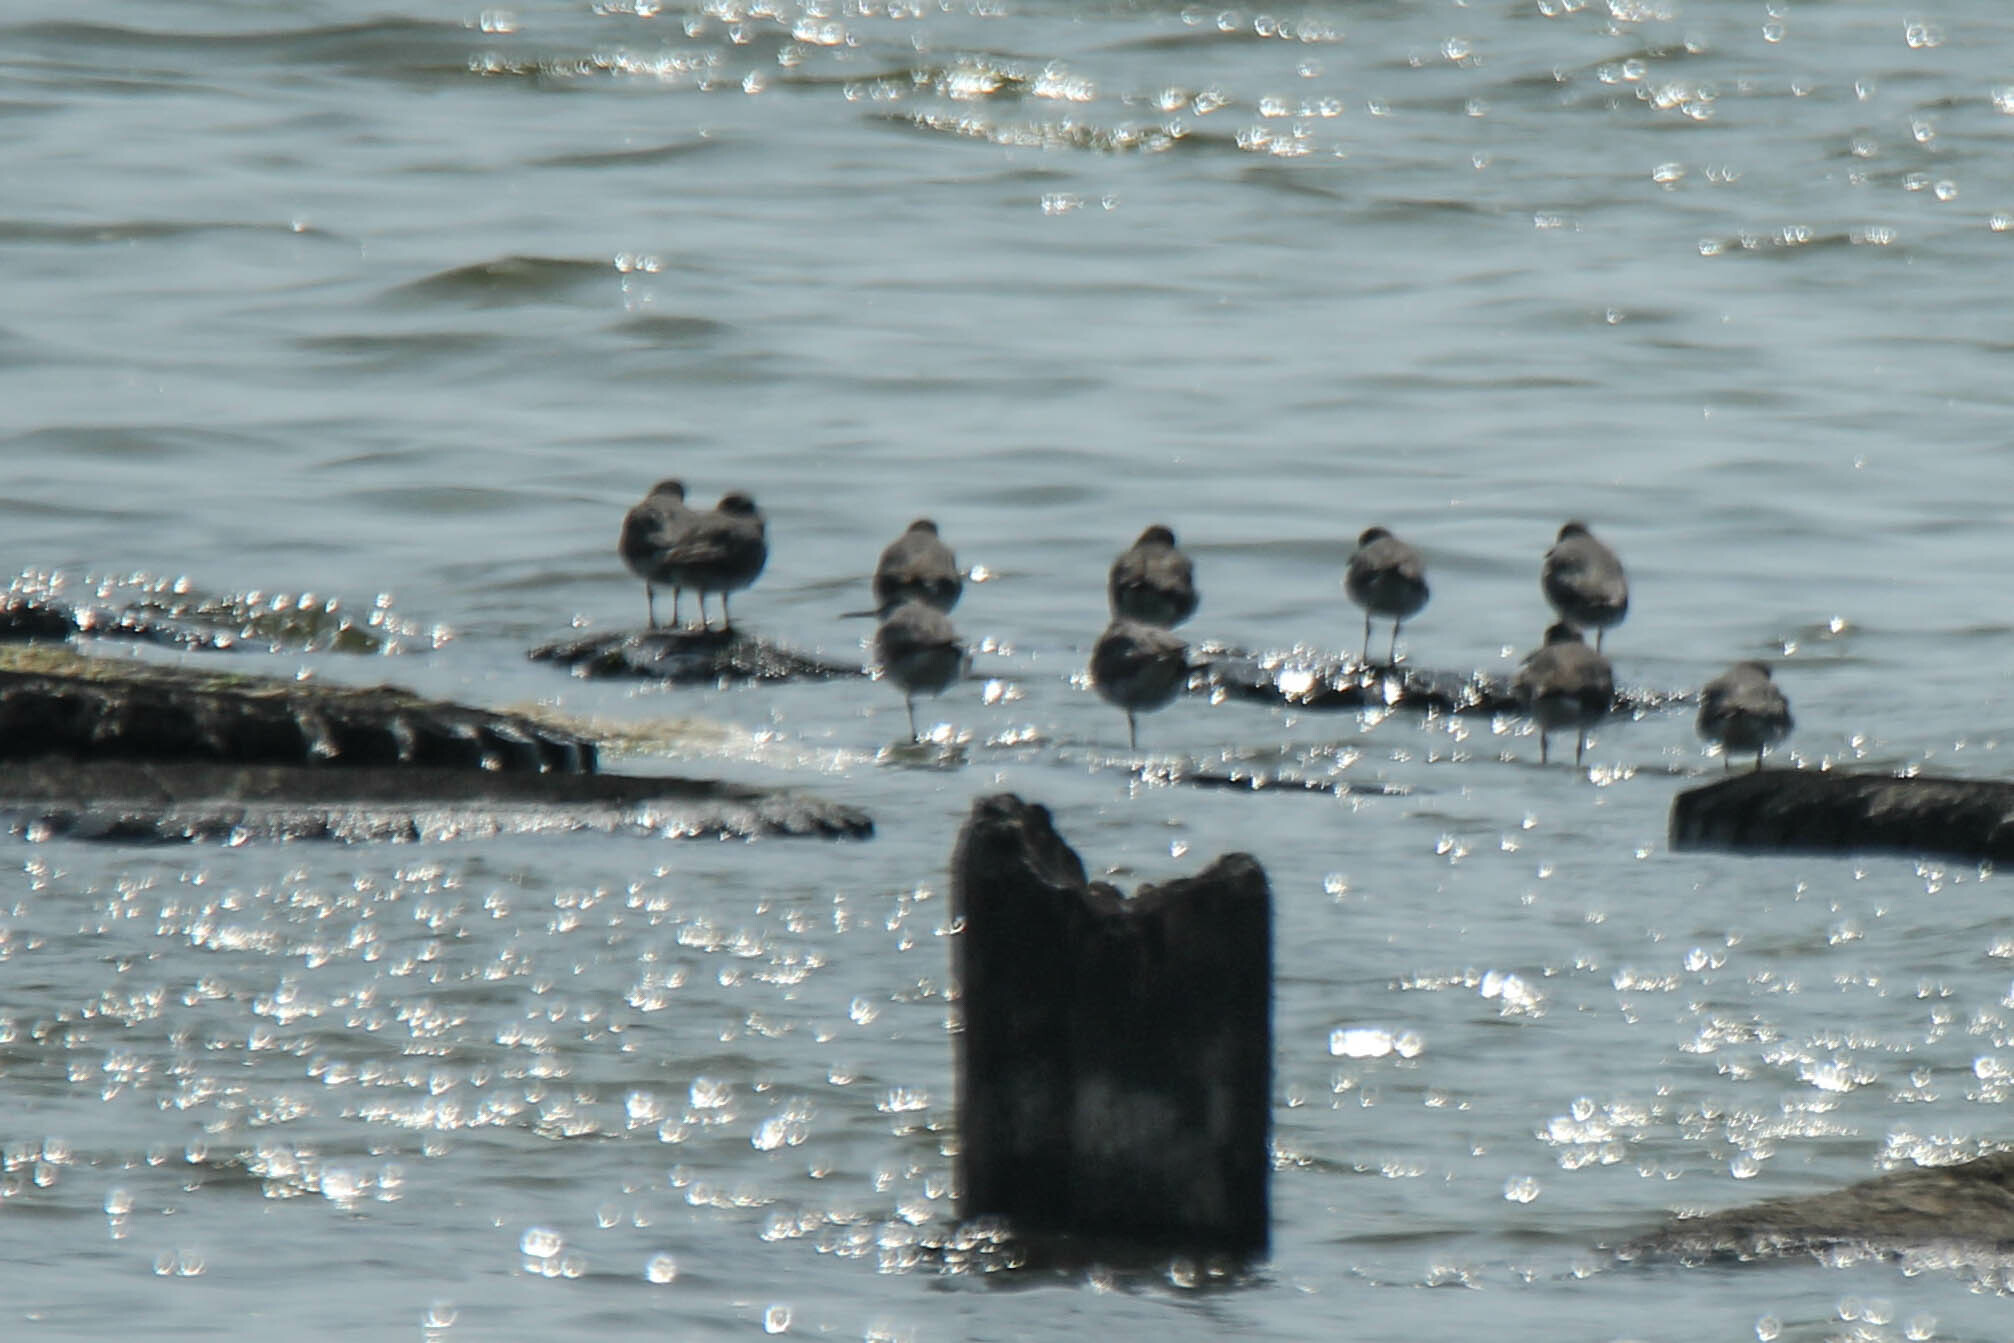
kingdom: Animalia
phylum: Chordata
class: Aves
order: Charadriiformes
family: Scolopacidae
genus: Tringa
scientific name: Tringa brevipes
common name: Grey-tailed tattler
